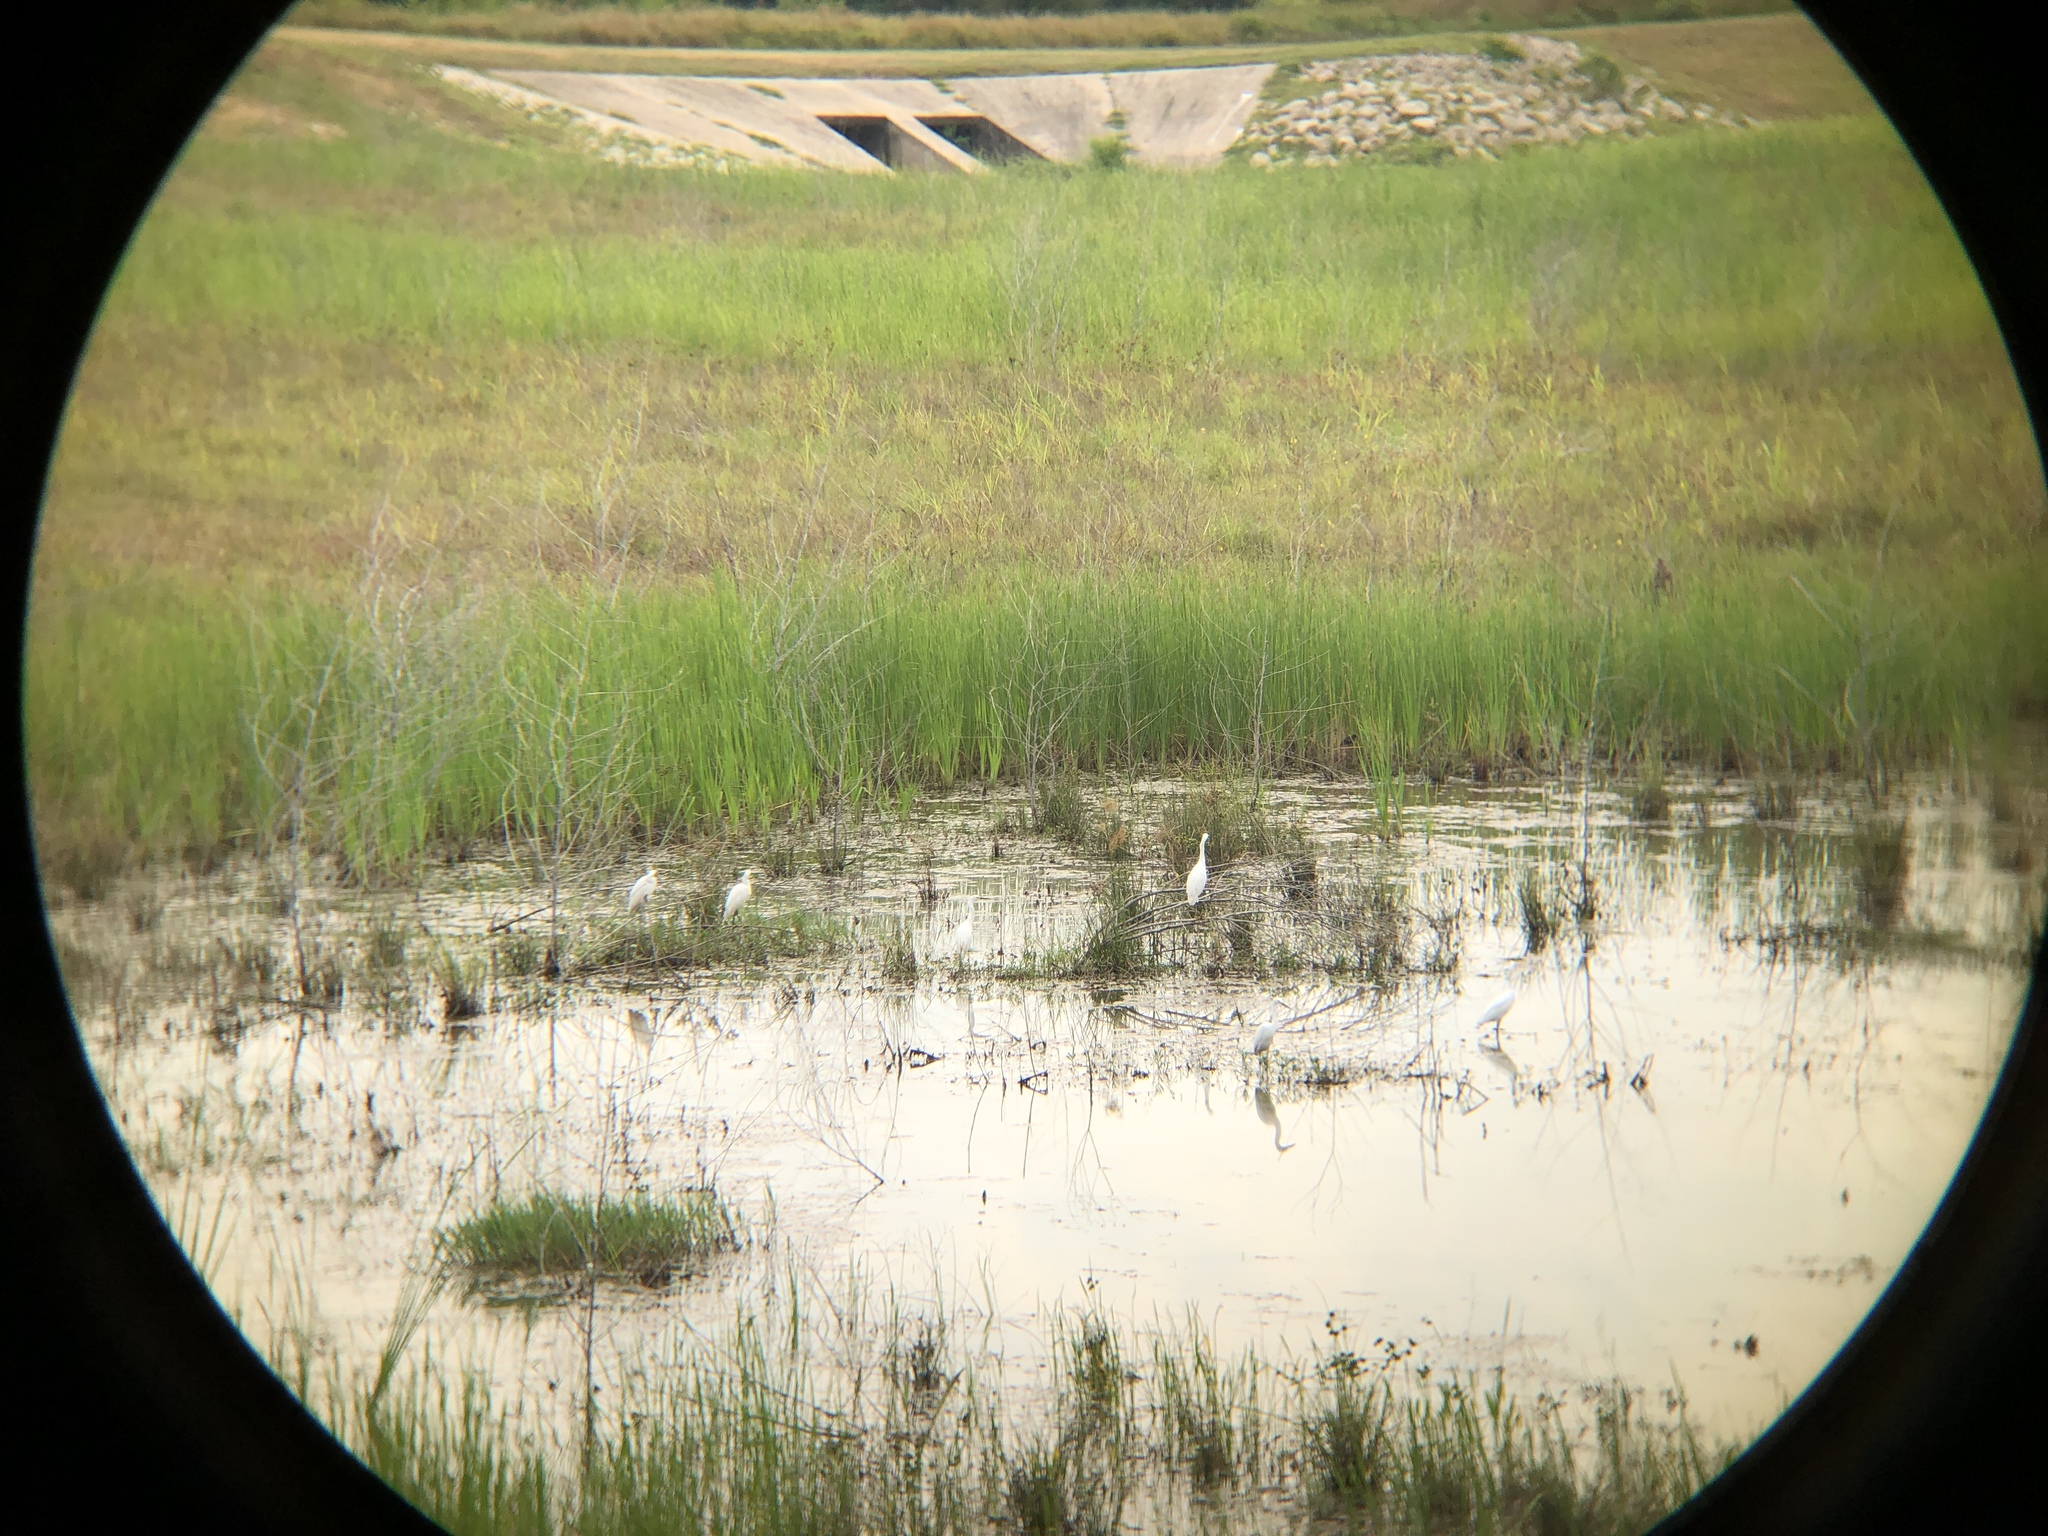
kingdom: Animalia
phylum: Chordata
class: Aves
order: Pelecaniformes
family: Ardeidae
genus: Egretta
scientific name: Egretta thula
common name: Snowy egret
